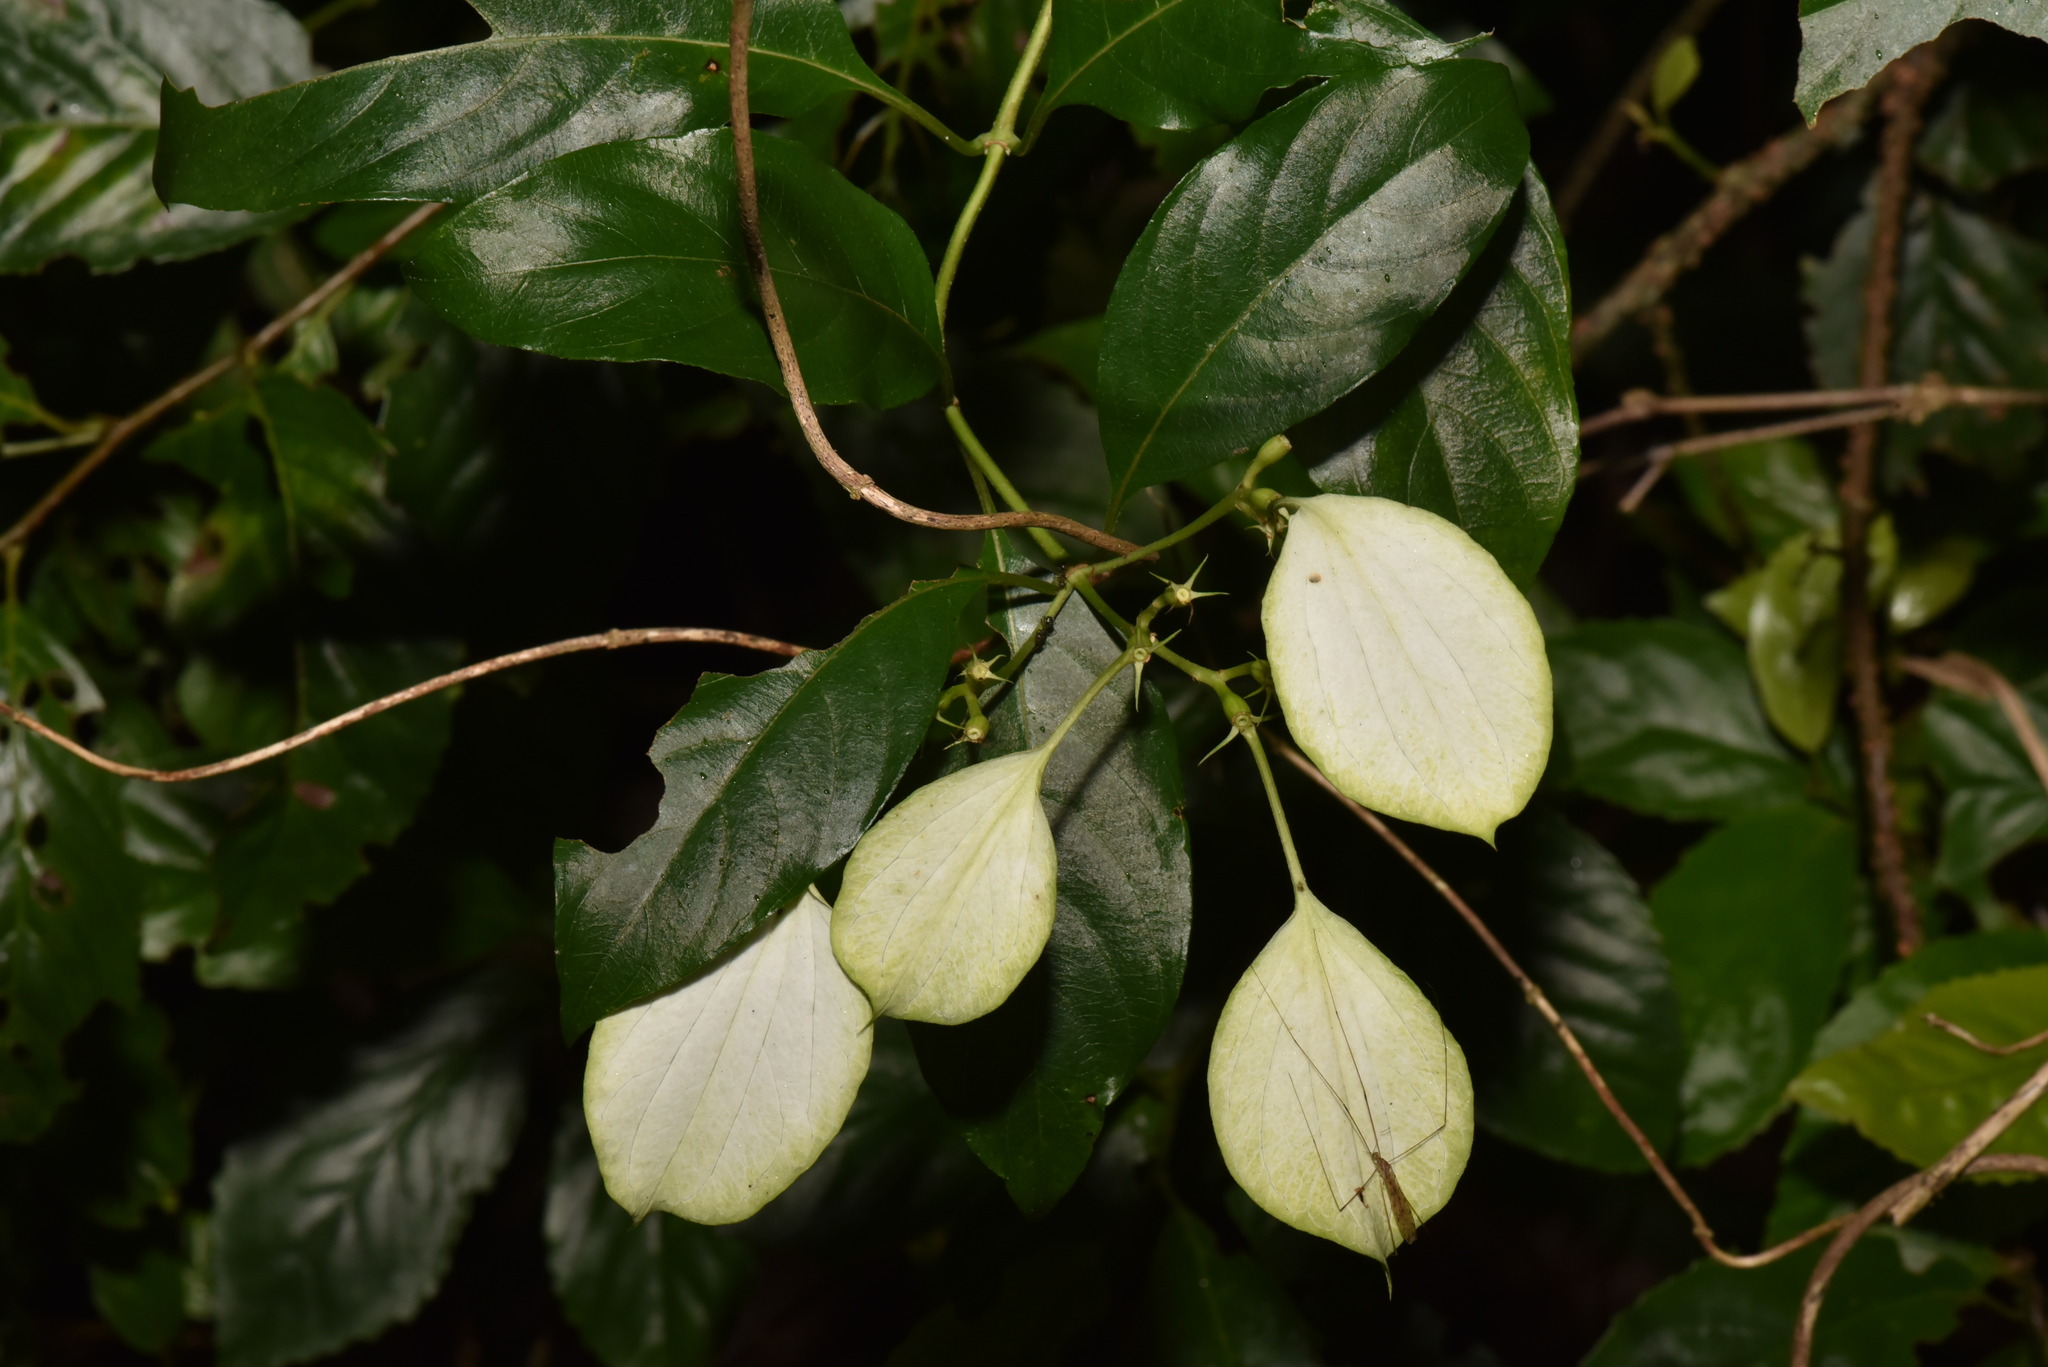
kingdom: Plantae
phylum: Tracheophyta
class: Magnoliopsida
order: Gentianales
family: Rubiaceae
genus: Mussaenda
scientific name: Mussaenda formosana
